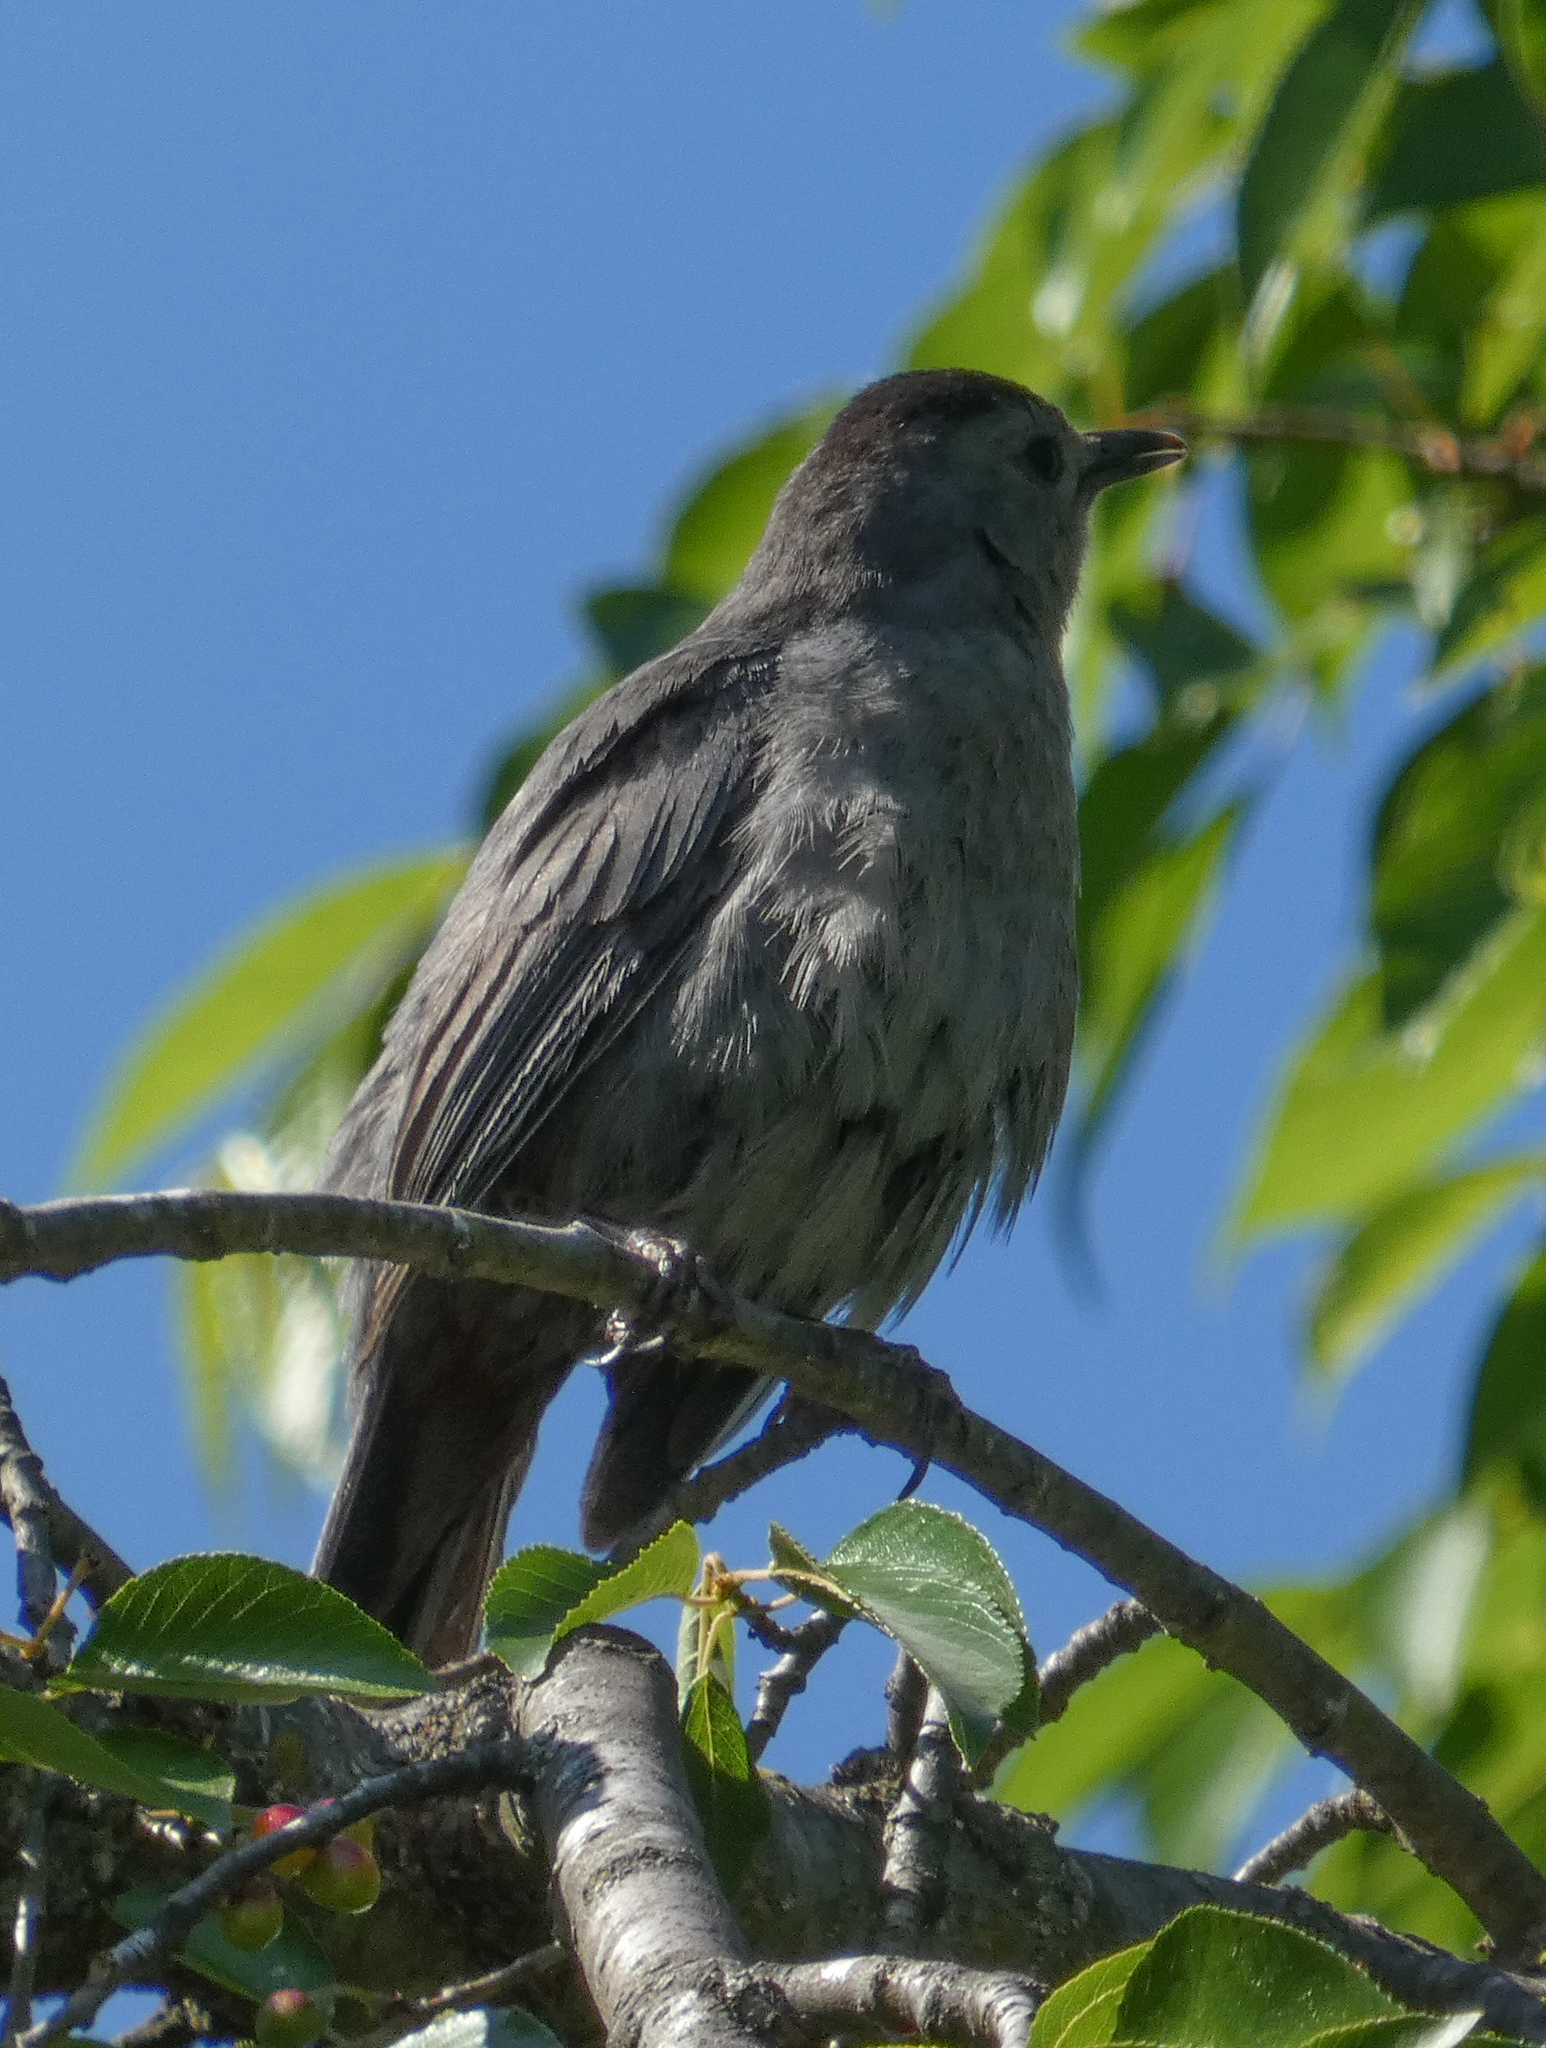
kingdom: Animalia
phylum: Chordata
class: Aves
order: Passeriformes
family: Mimidae
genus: Dumetella
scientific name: Dumetella carolinensis
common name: Gray catbird
